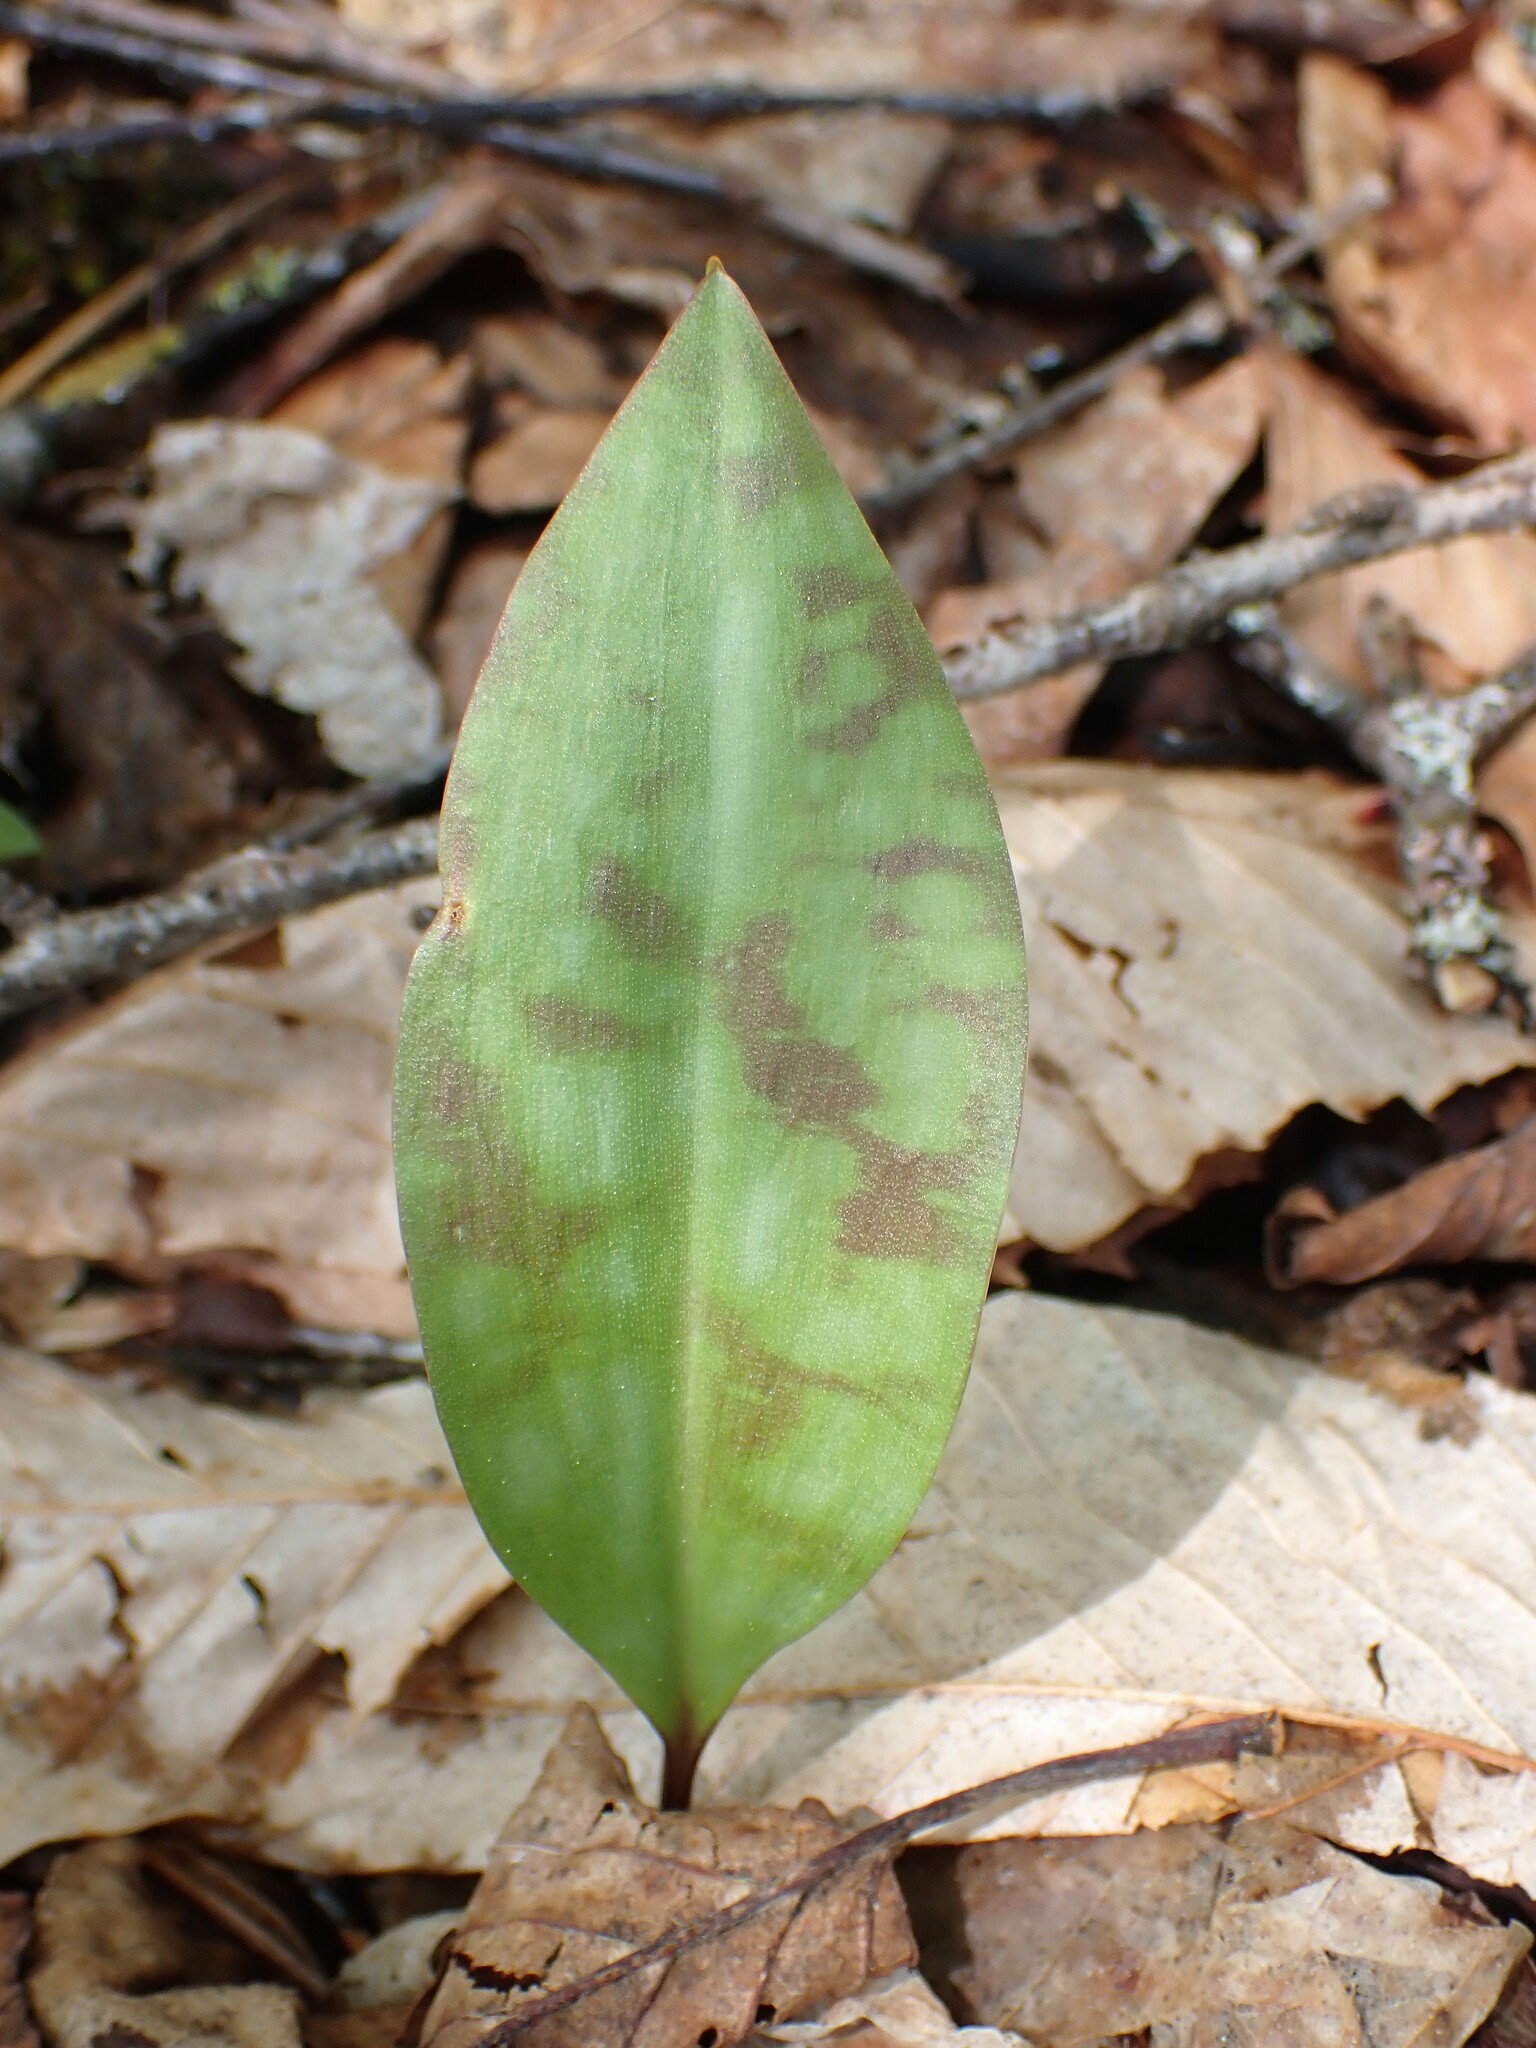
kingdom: Plantae
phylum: Tracheophyta
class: Liliopsida
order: Liliales
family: Liliaceae
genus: Erythronium
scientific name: Erythronium americanum
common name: Yellow adder's-tongue
